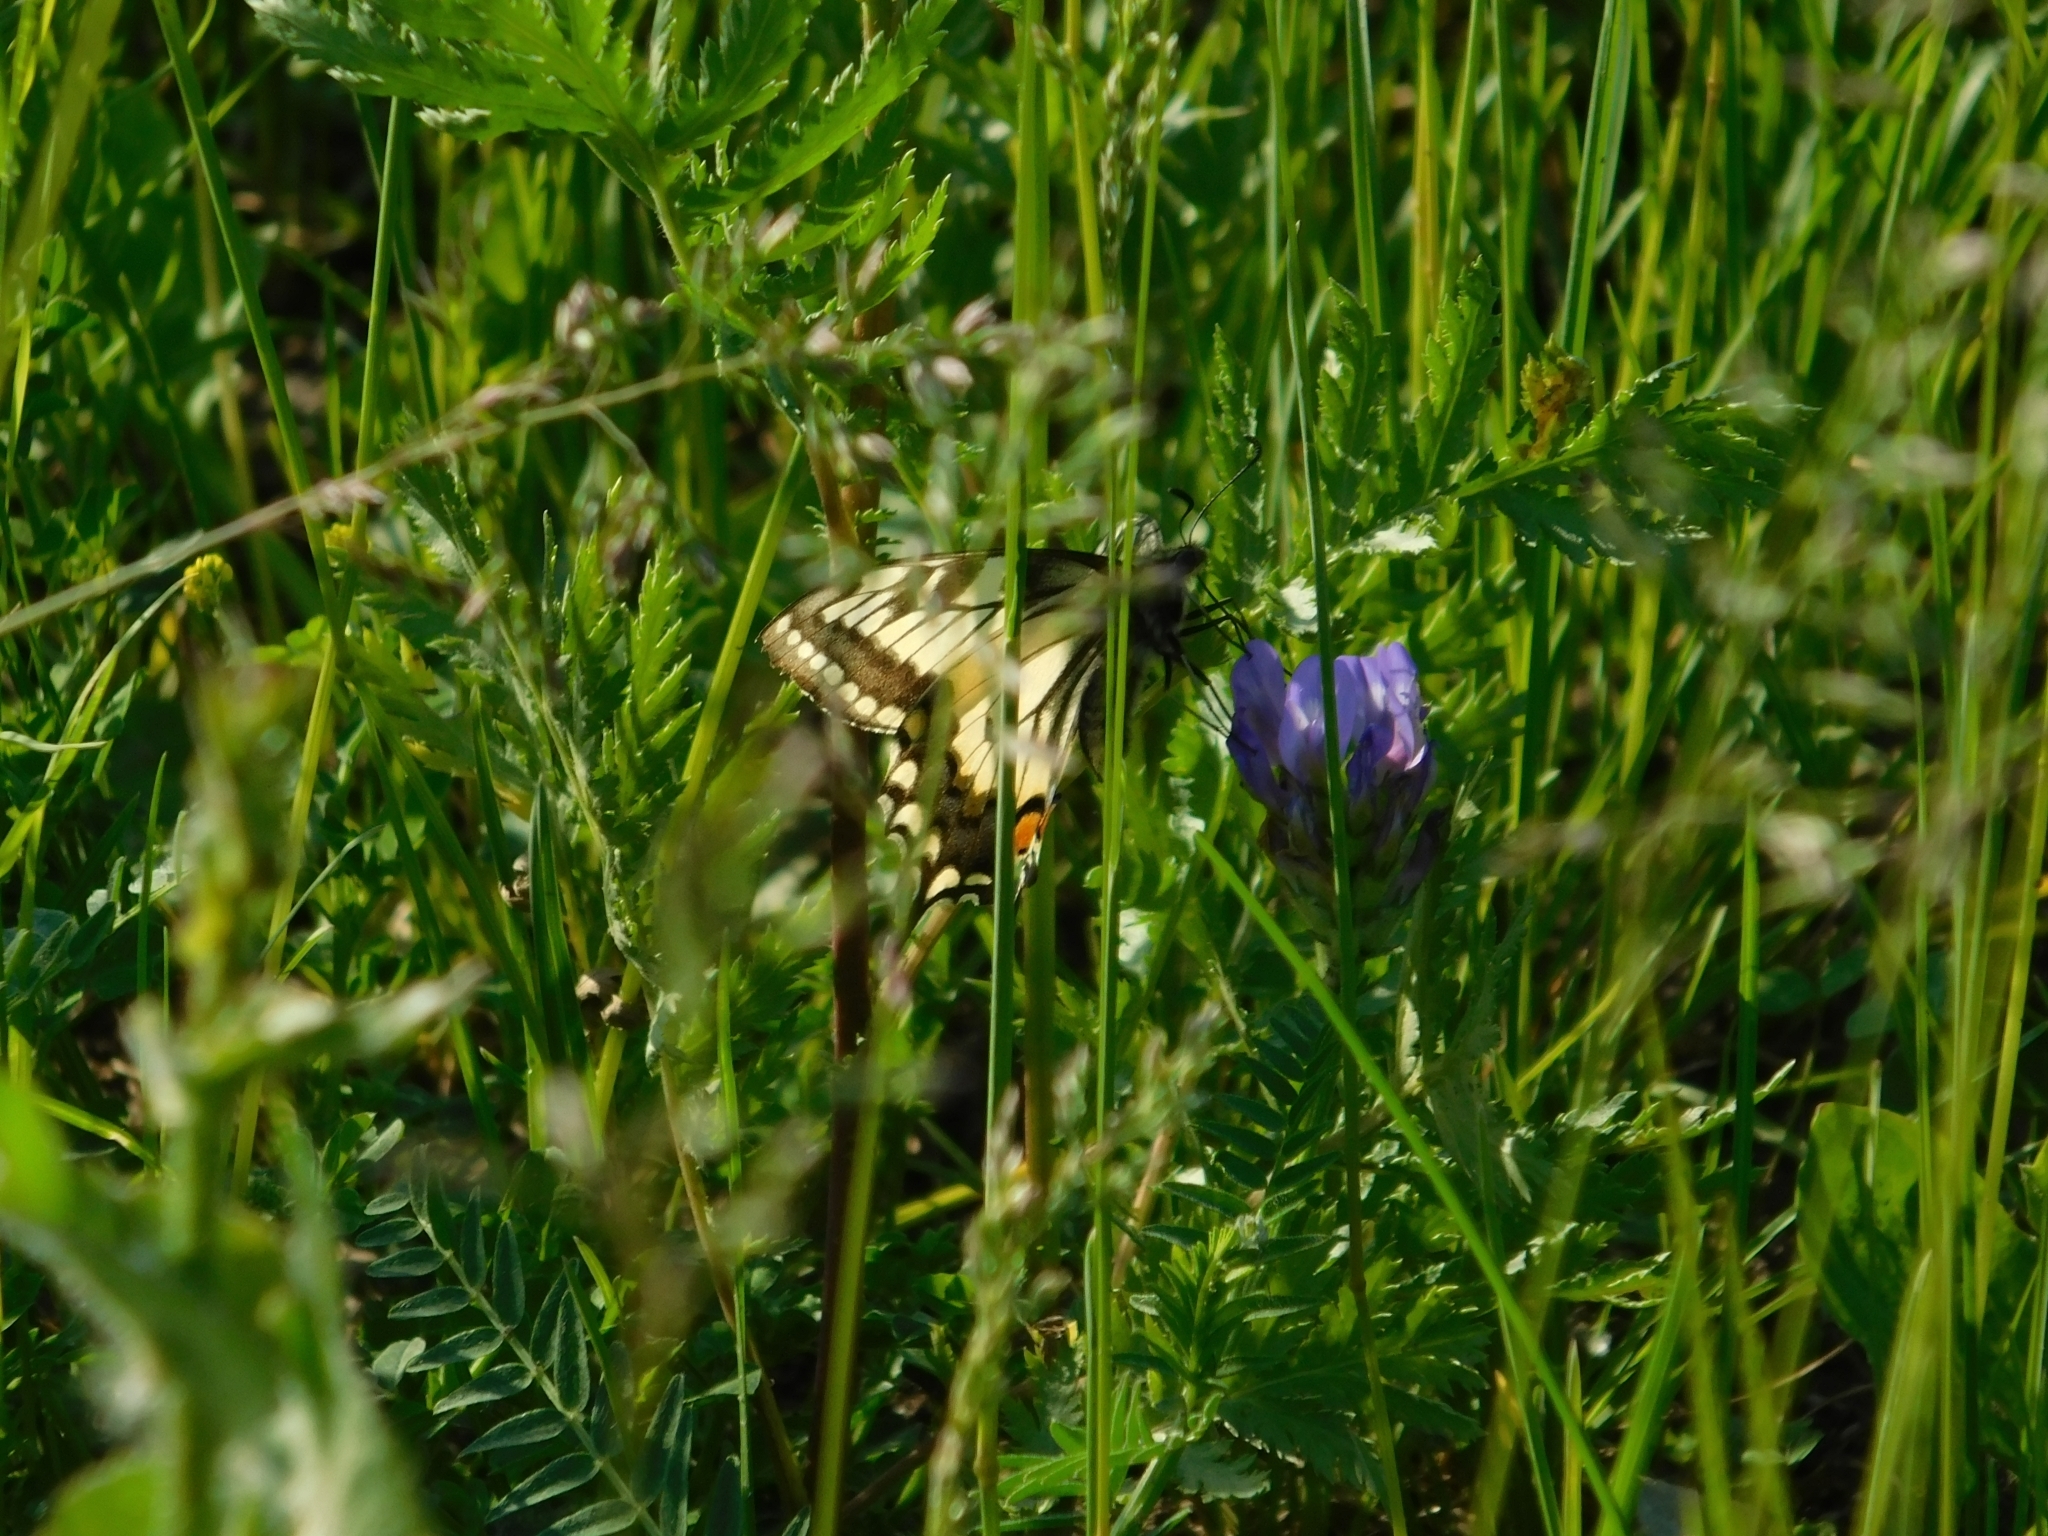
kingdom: Animalia
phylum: Arthropoda
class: Insecta
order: Lepidoptera
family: Papilionidae
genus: Papilio
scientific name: Papilio machaon
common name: Swallowtail
